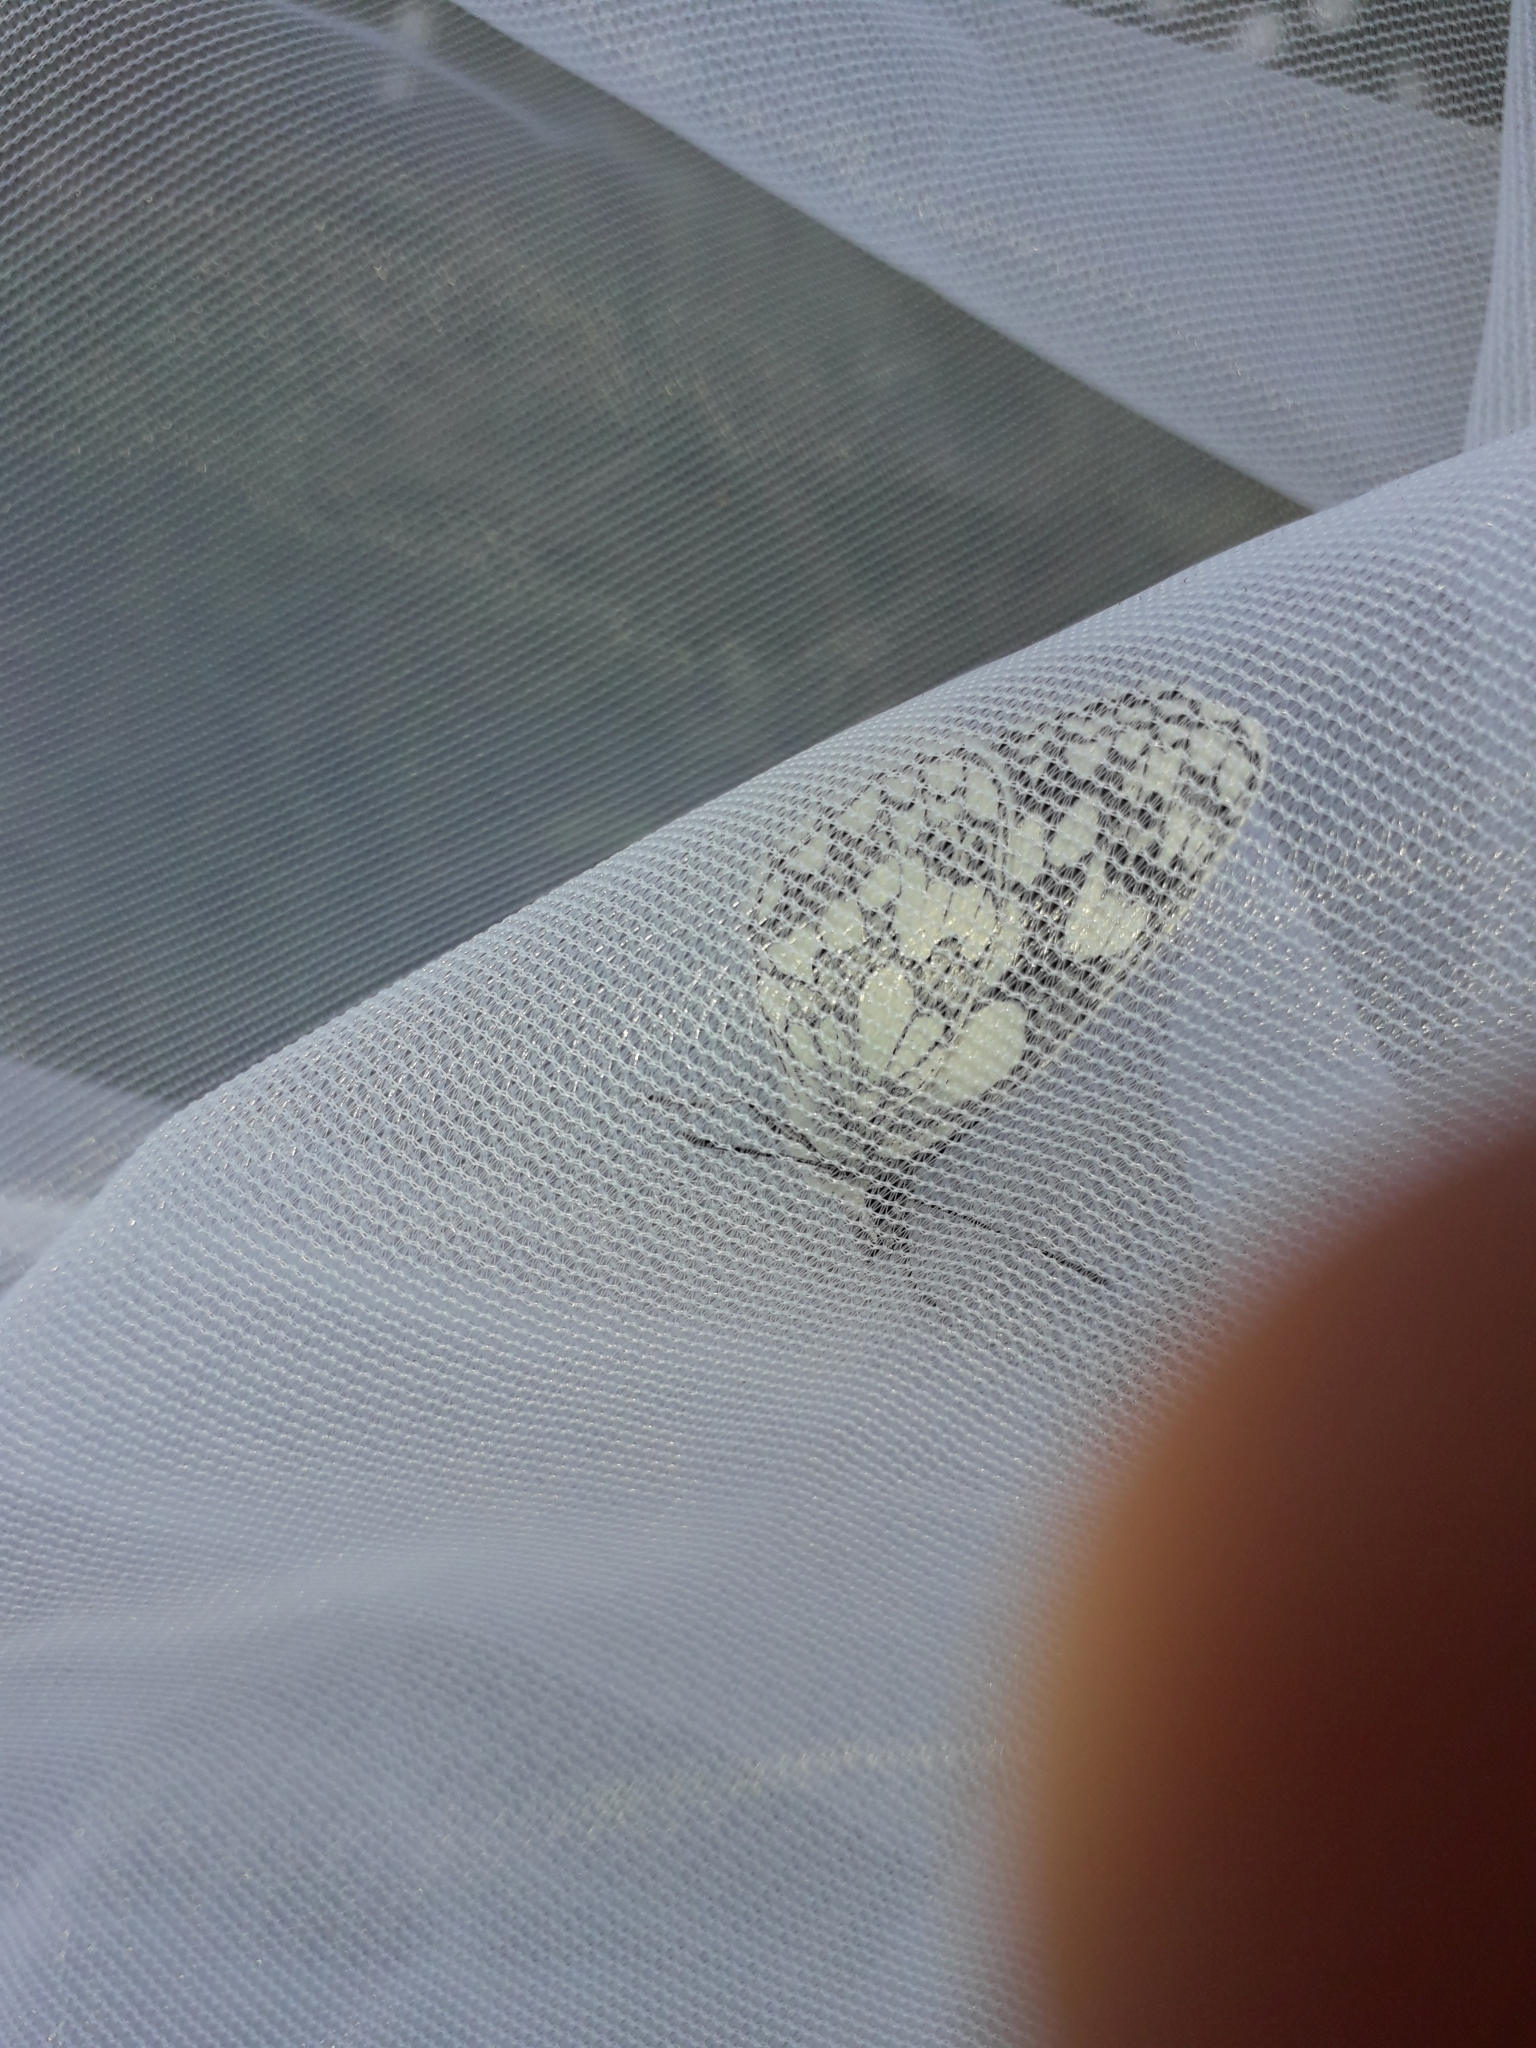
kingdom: Animalia
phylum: Arthropoda
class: Insecta
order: Lepidoptera
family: Nymphalidae
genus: Melanargia
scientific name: Melanargia galathea
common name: Marbled white
